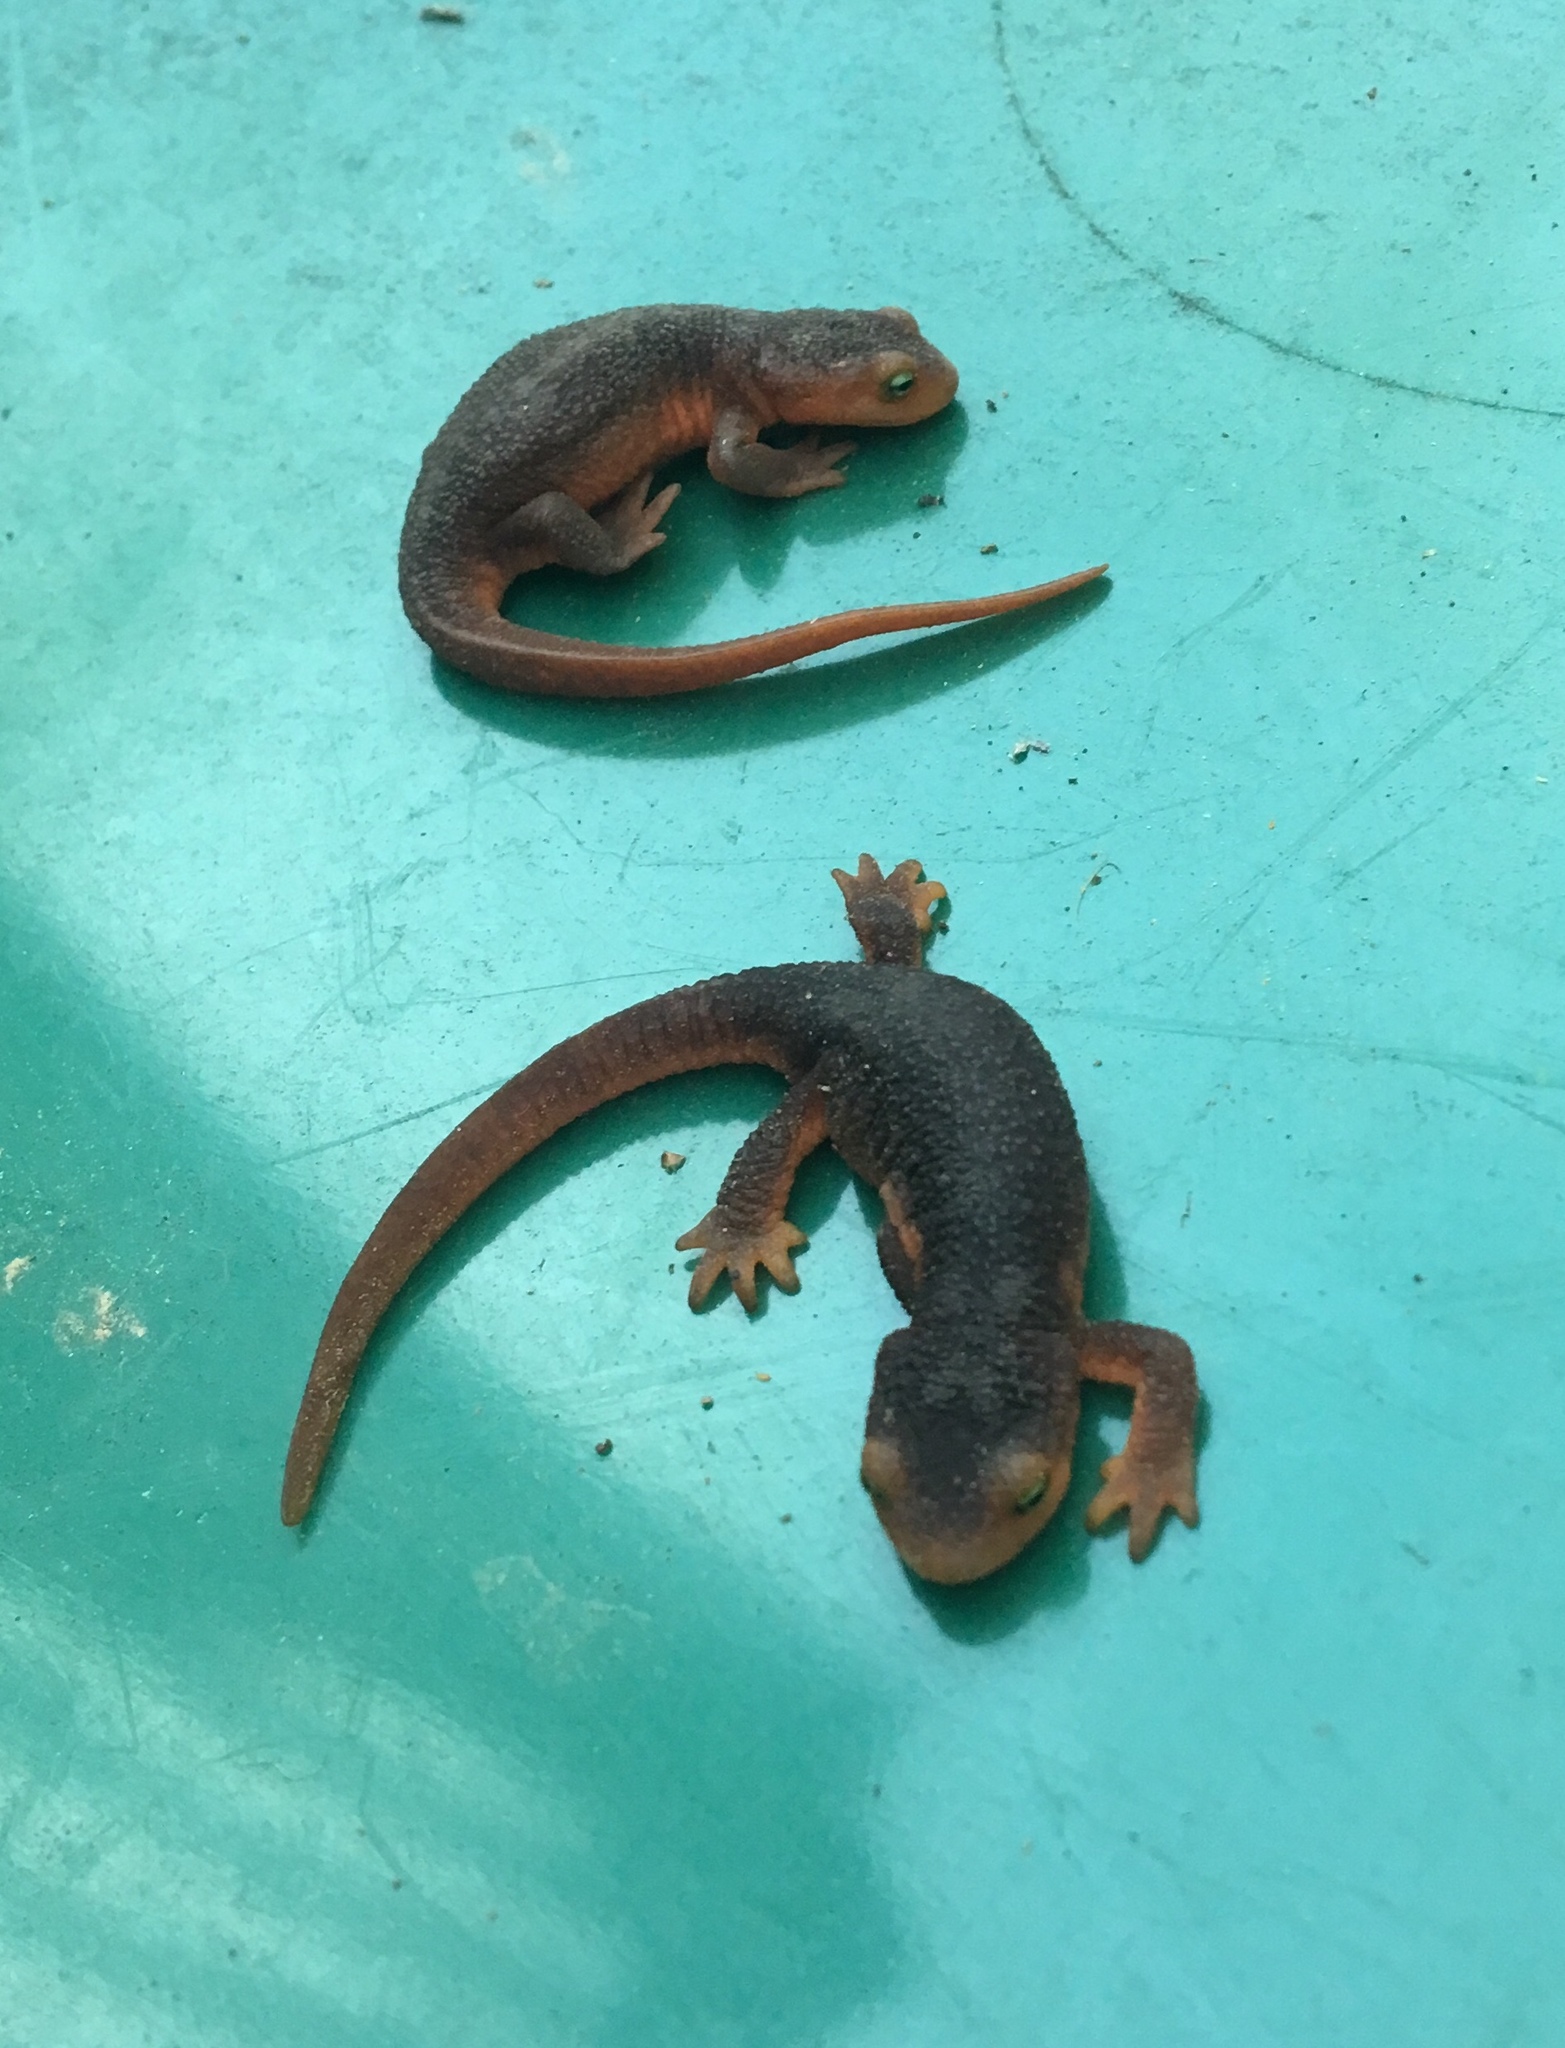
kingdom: Animalia
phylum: Chordata
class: Amphibia
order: Caudata
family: Salamandridae
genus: Taricha
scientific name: Taricha sierrae
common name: Sierra newt
